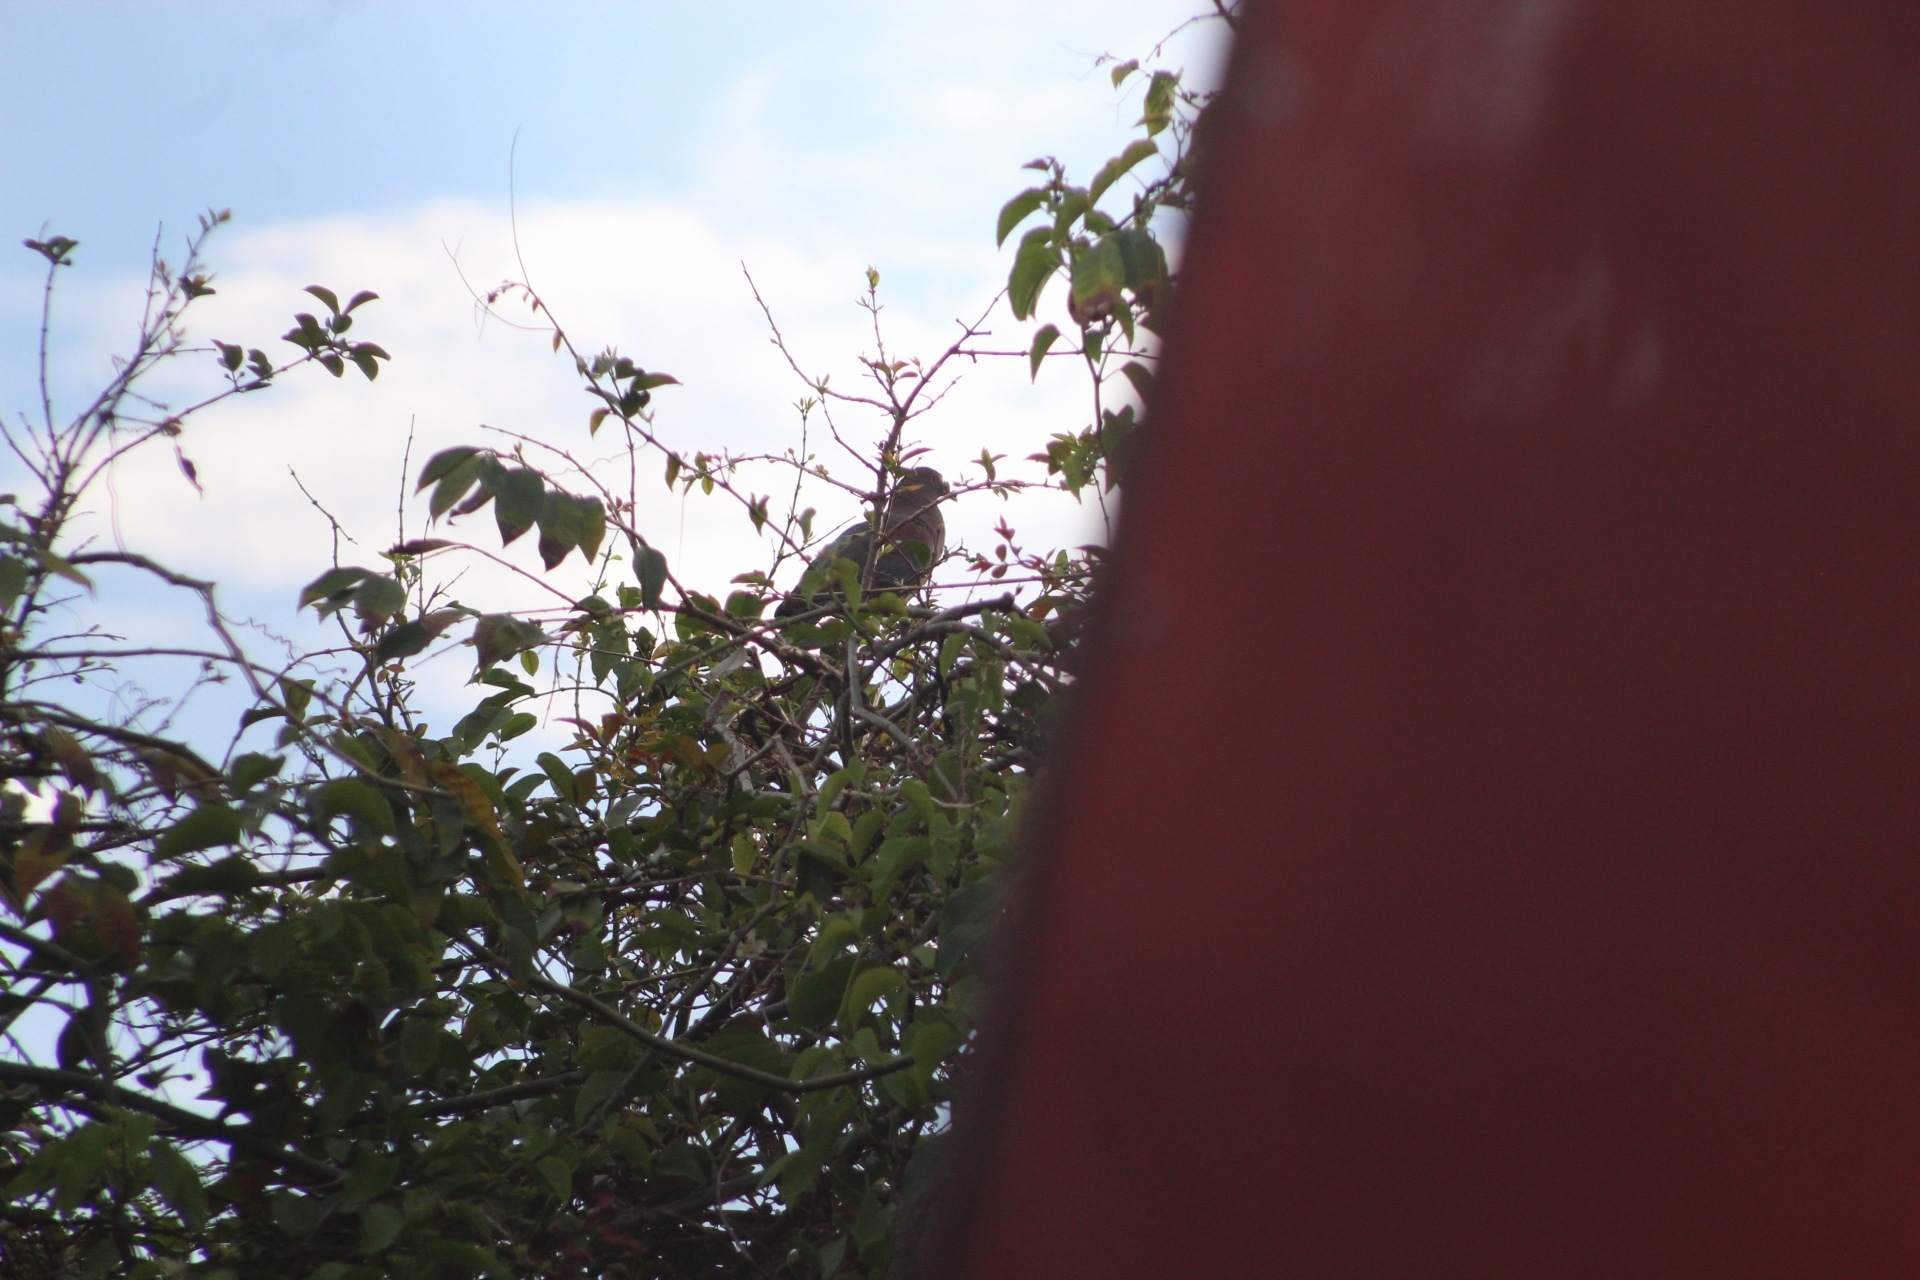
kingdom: Animalia
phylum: Chordata
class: Aves
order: Columbiformes
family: Columbidae
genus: Patagioenas
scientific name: Patagioenas flavirostris
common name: Red-billed pigeon
